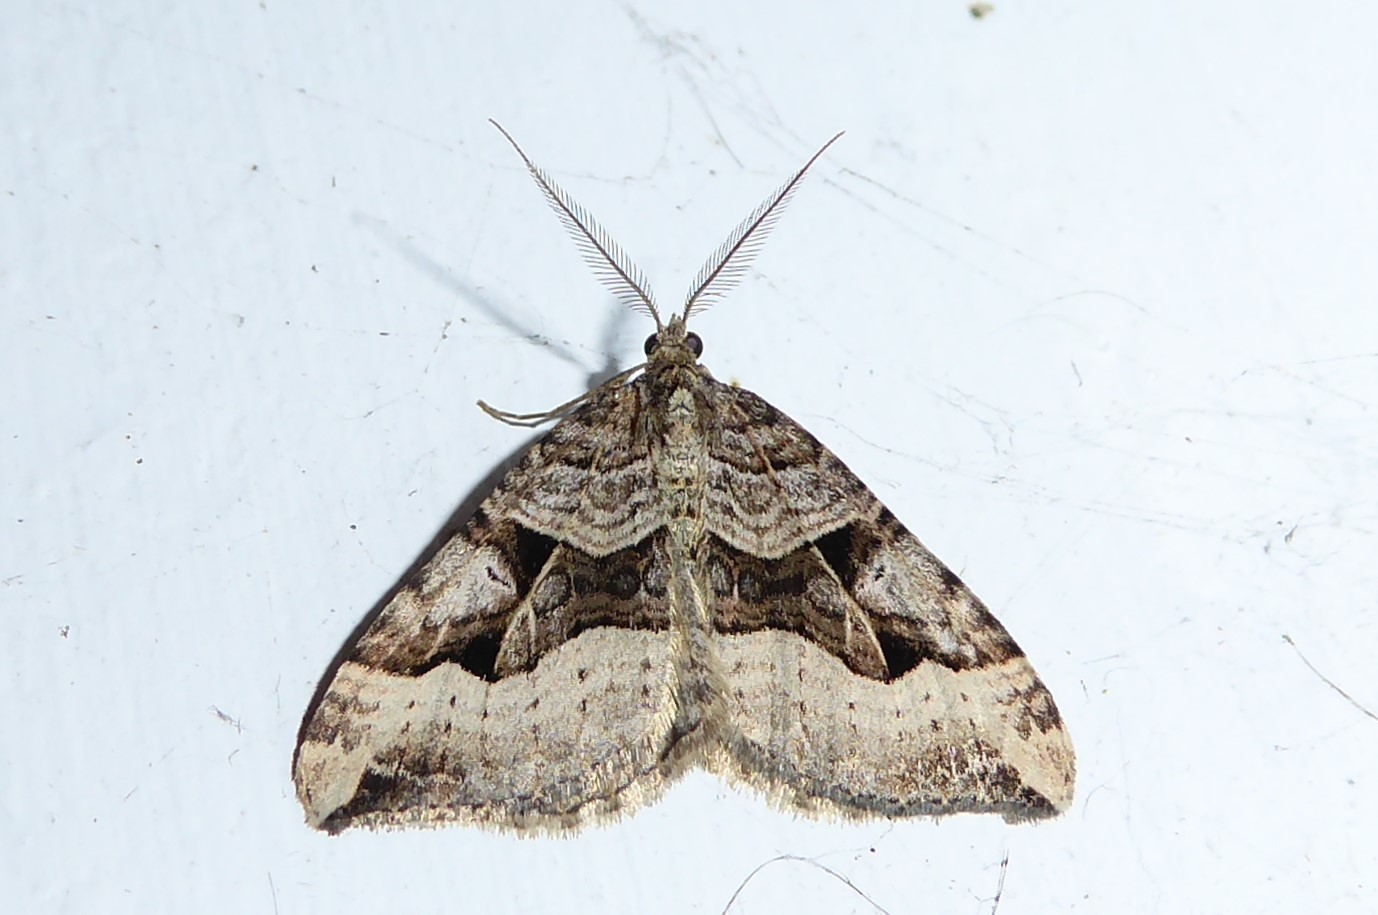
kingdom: Animalia
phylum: Arthropoda
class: Insecta
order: Lepidoptera
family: Geometridae
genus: Xanthorhoe
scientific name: Xanthorhoe semifissata
